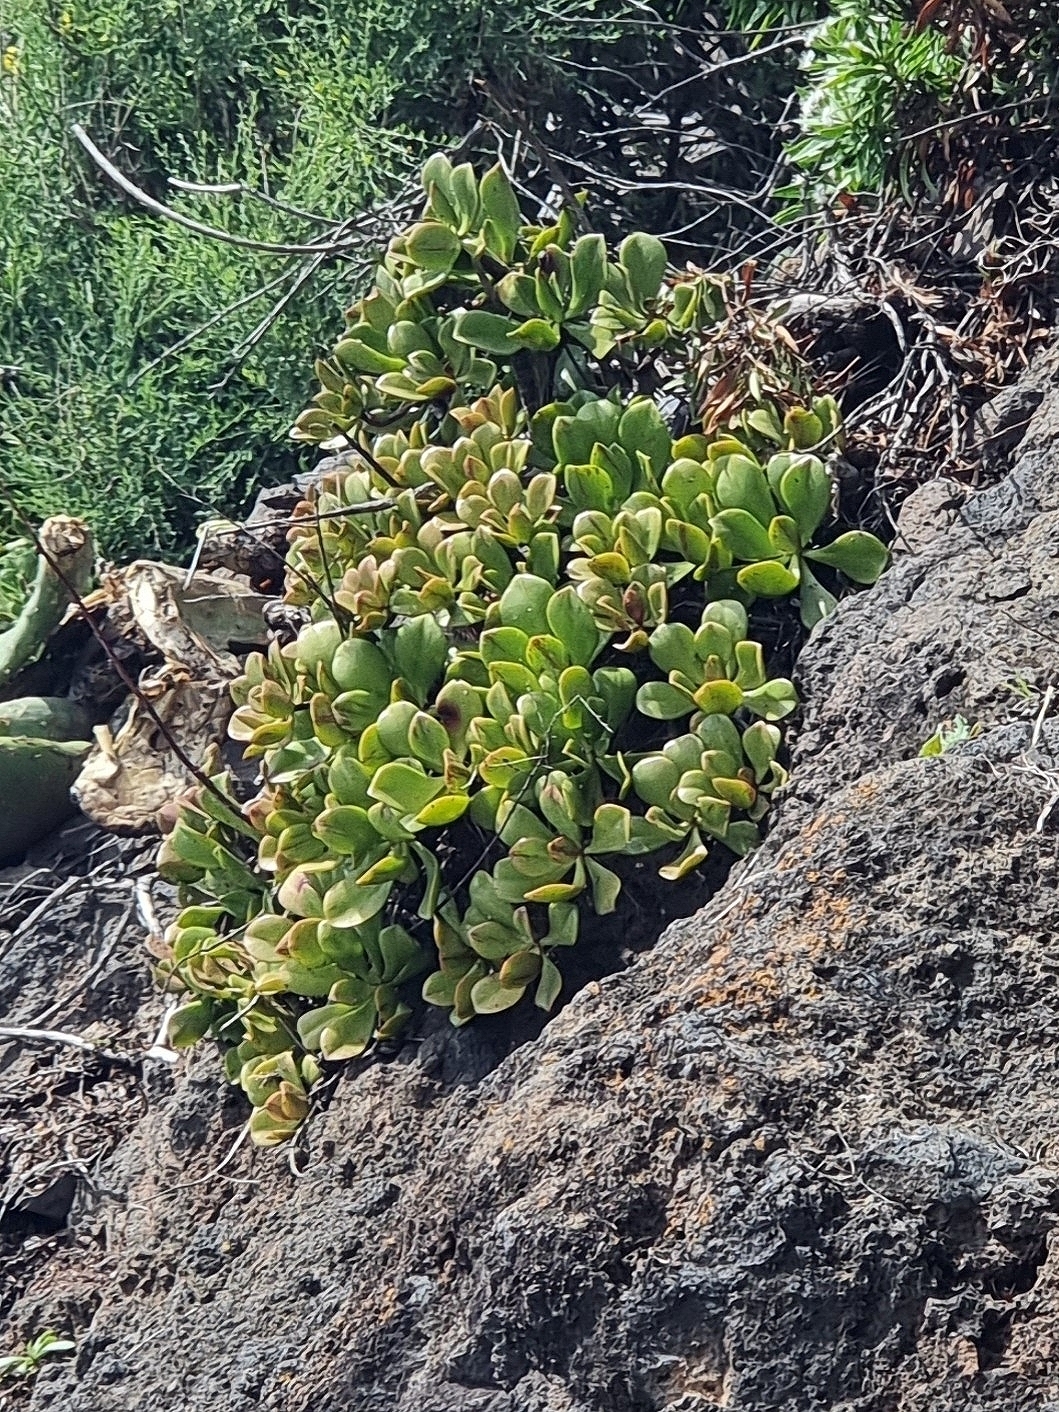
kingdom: Plantae
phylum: Tracheophyta
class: Magnoliopsida
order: Saxifragales
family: Crassulaceae
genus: Aeonium
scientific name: Aeonium glutinosum
